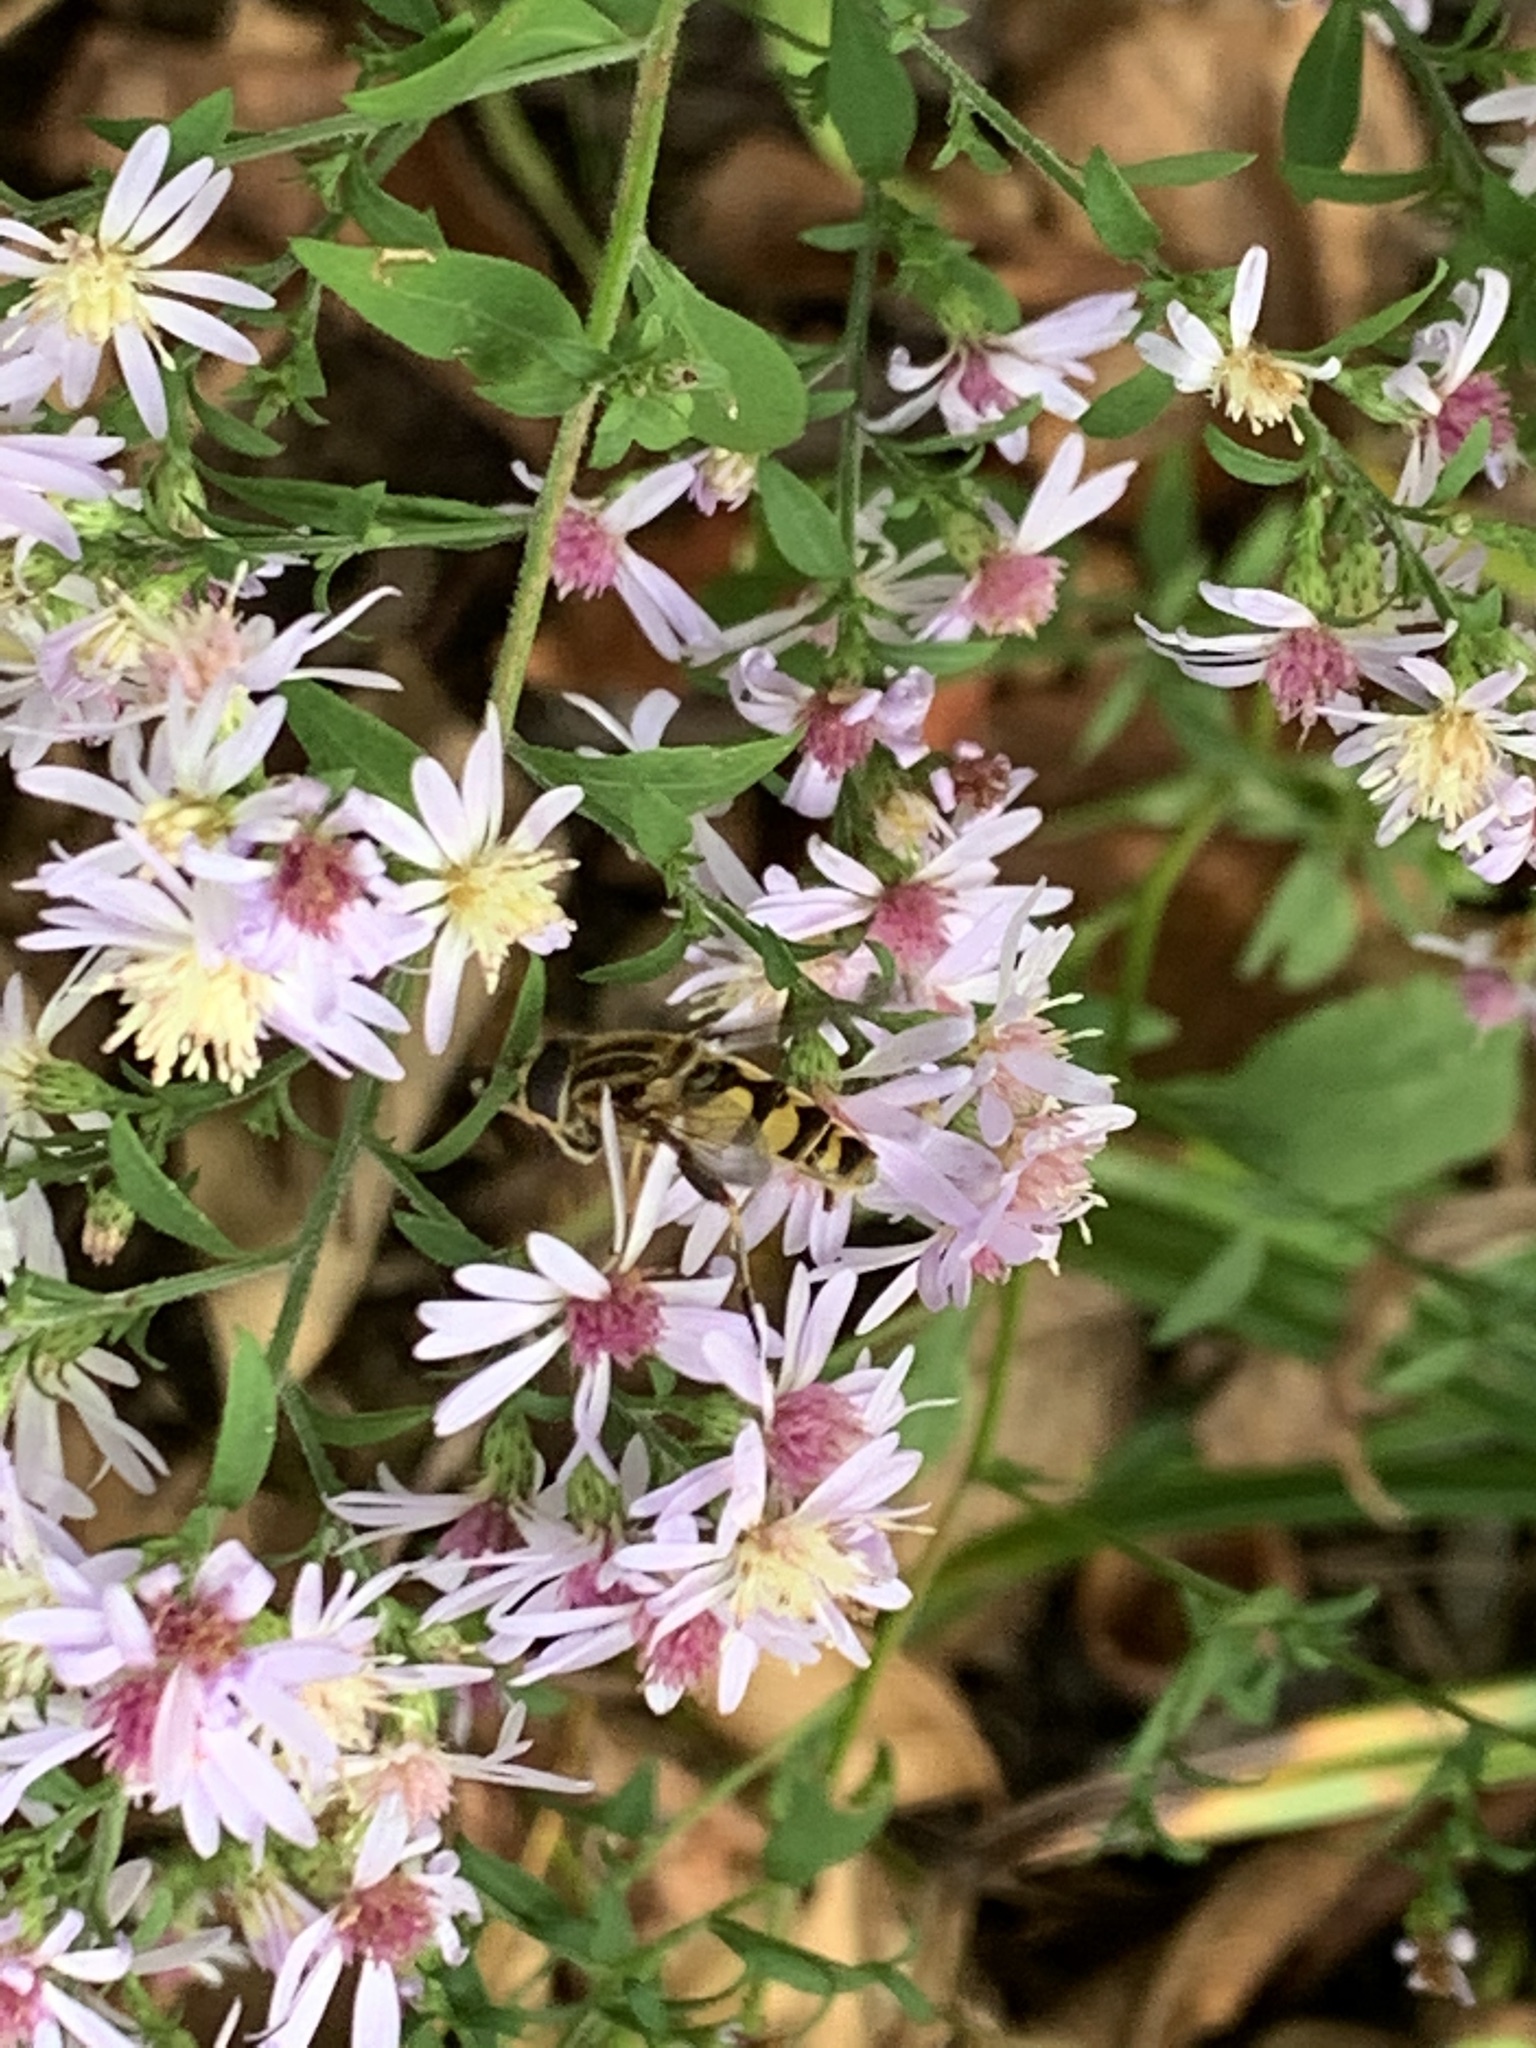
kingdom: Animalia
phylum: Arthropoda
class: Insecta
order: Diptera
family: Syrphidae
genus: Helophilus
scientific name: Helophilus fasciatus
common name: Narrow-headed marsh fly
